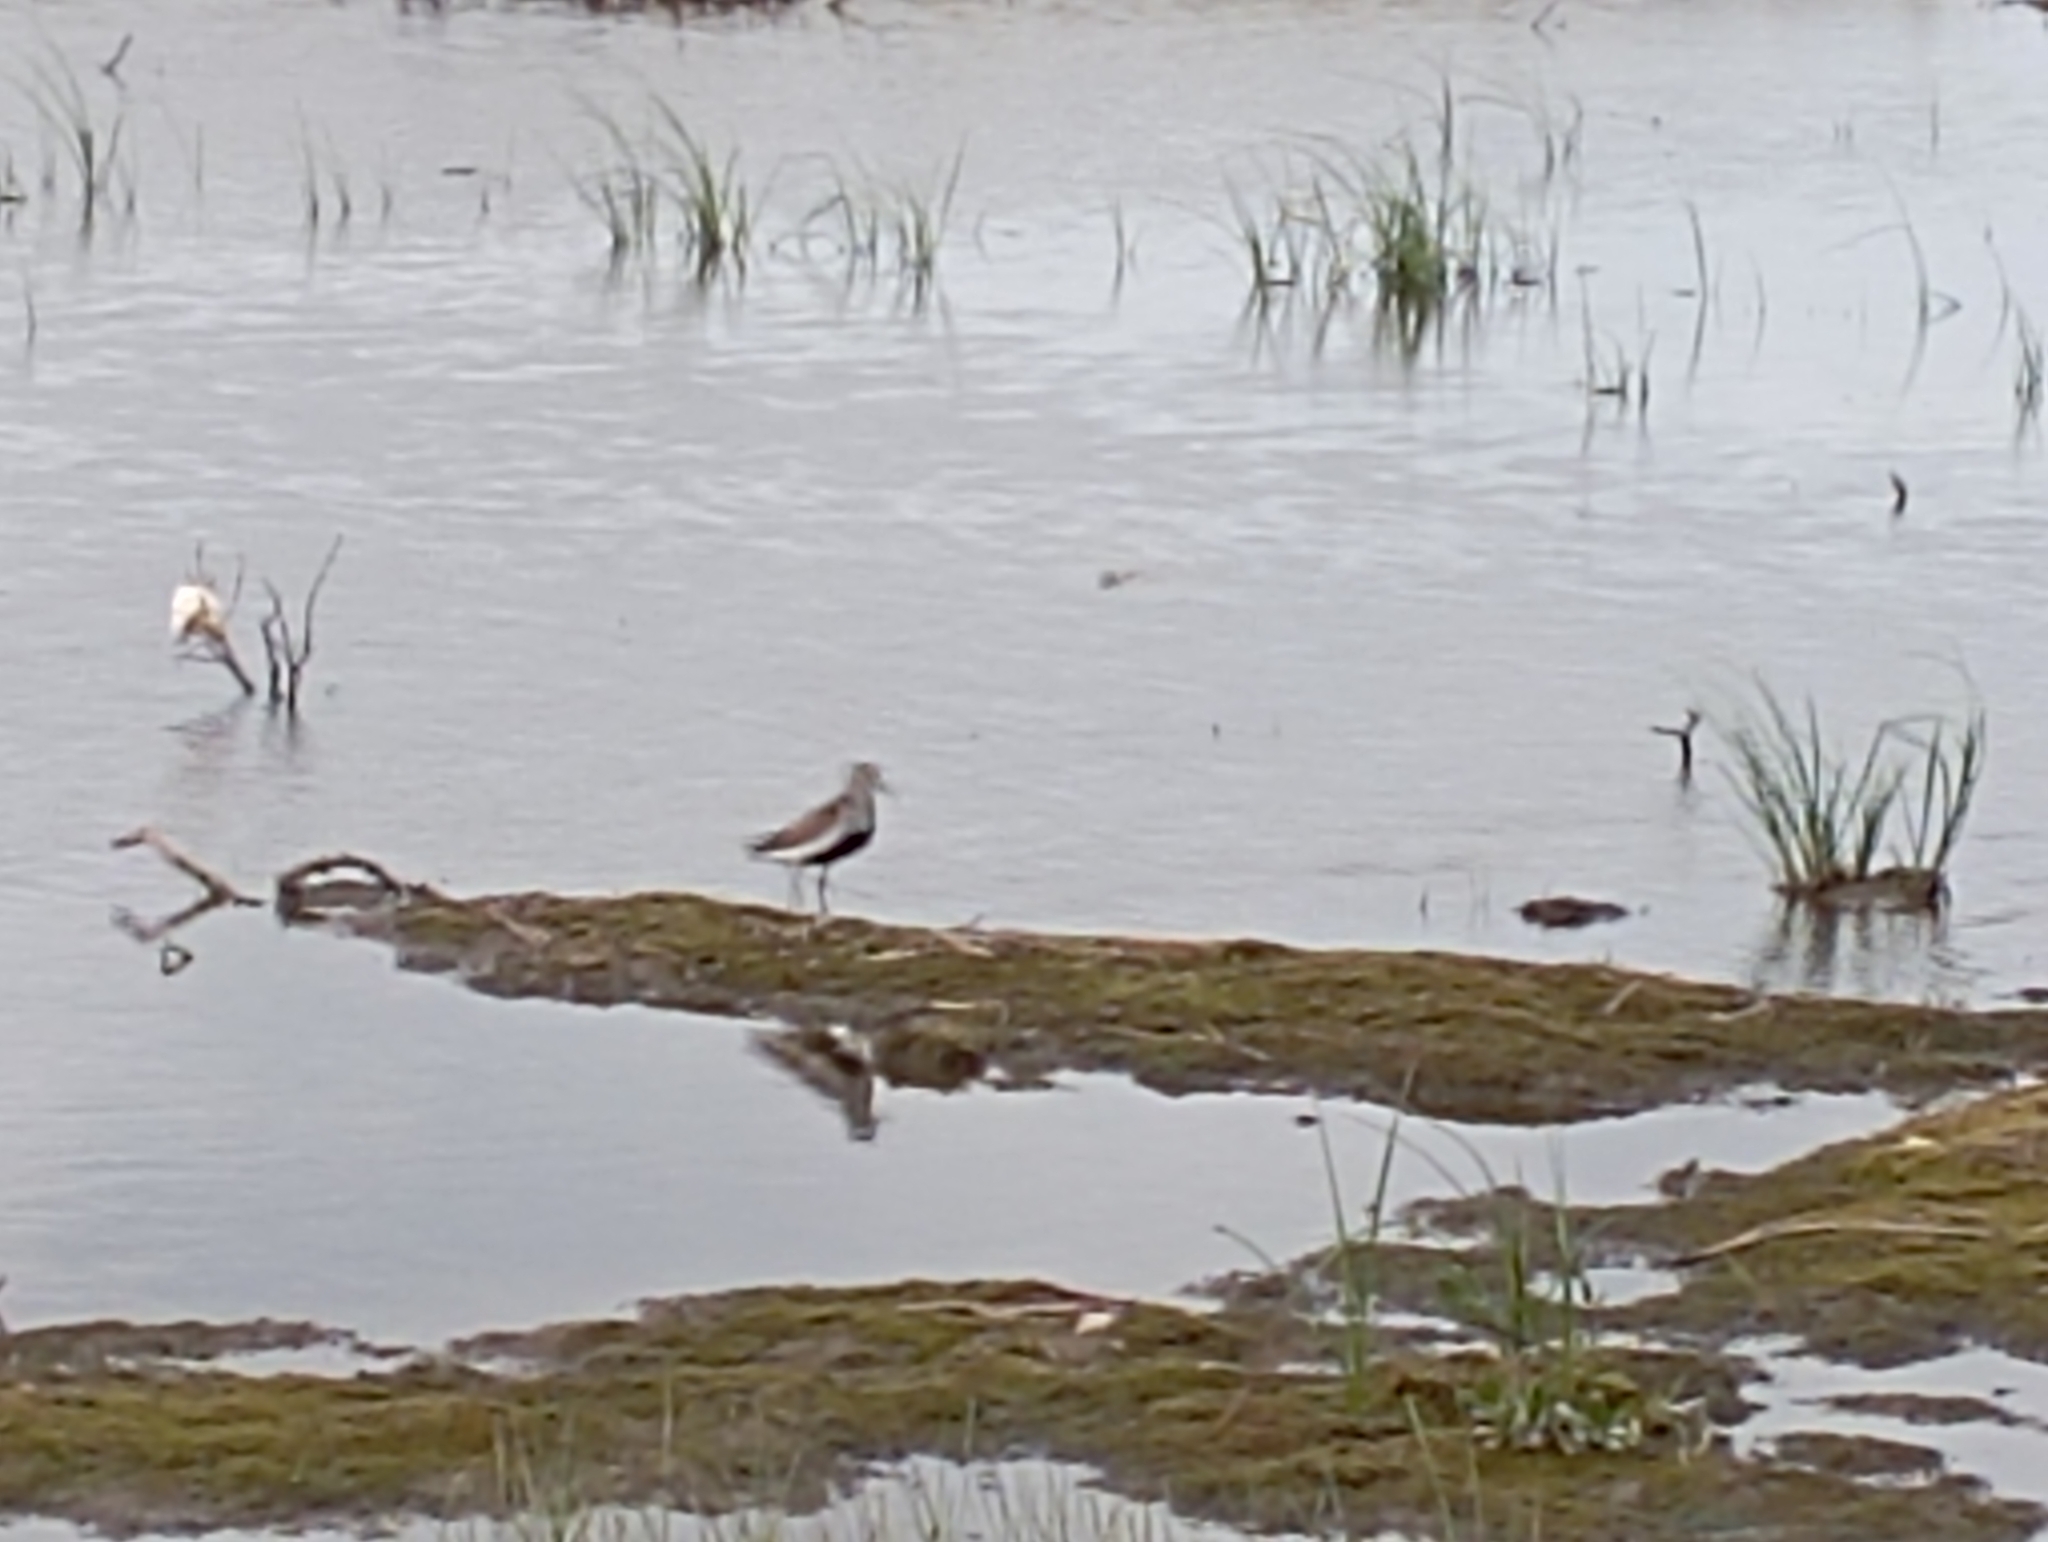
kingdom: Animalia
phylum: Chordata
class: Aves
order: Charadriiformes
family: Scolopacidae
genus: Calidris
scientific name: Calidris alpina
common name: Dunlin
